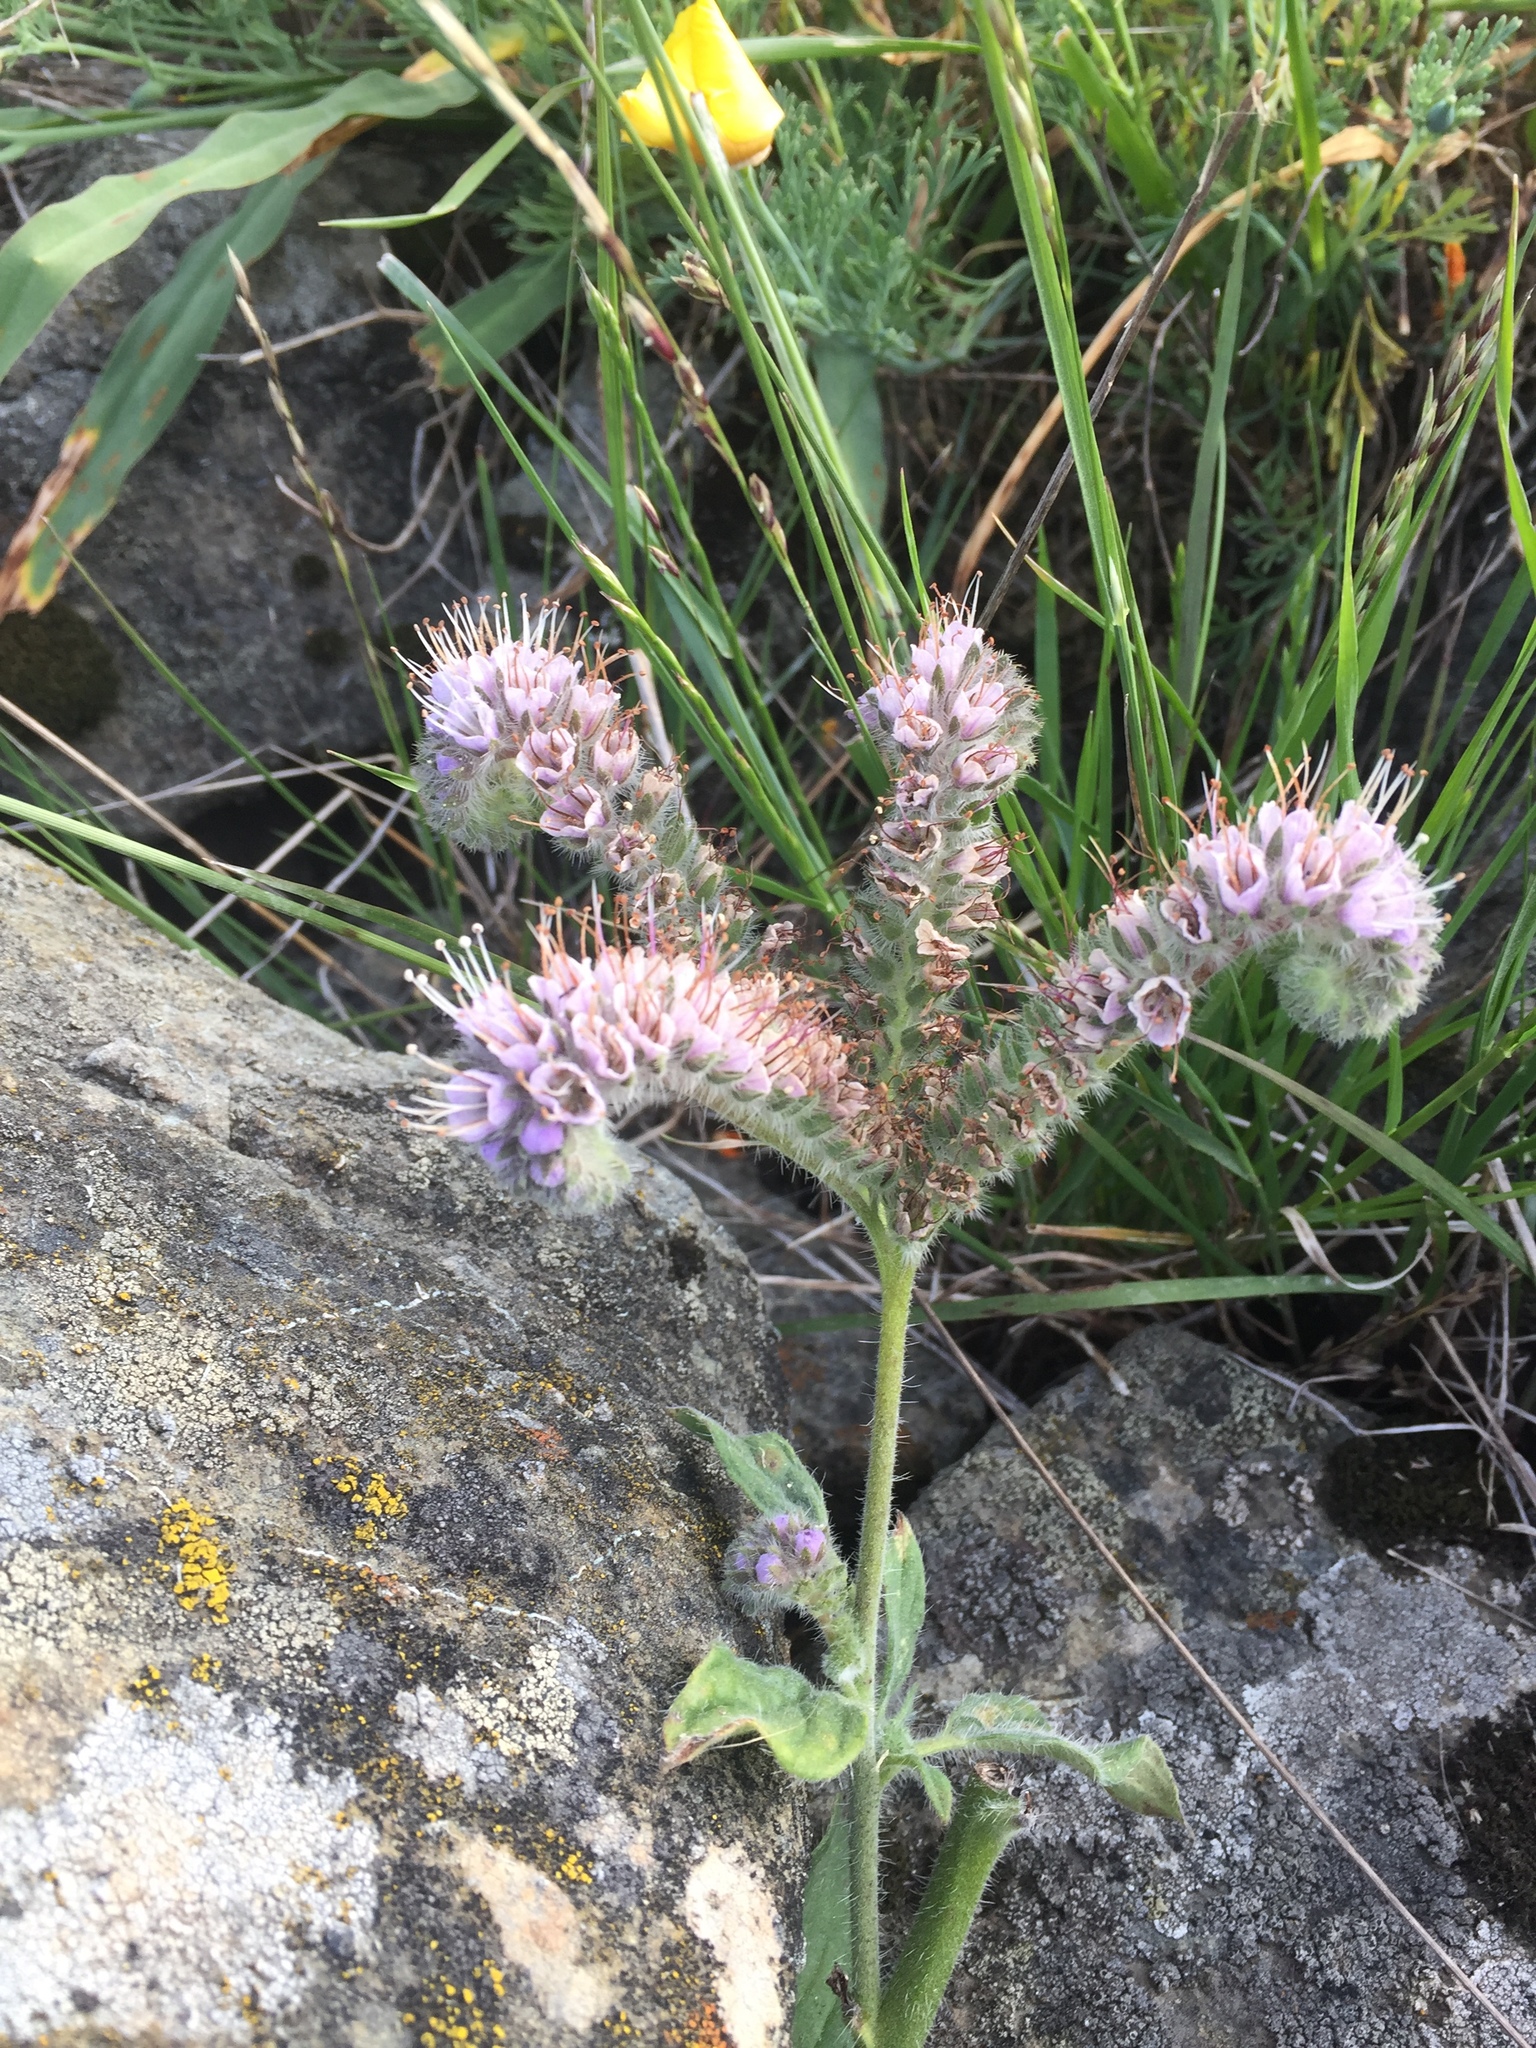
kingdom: Plantae
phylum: Tracheophyta
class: Magnoliopsida
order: Boraginales
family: Hydrophyllaceae
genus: Phacelia
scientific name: Phacelia californica
